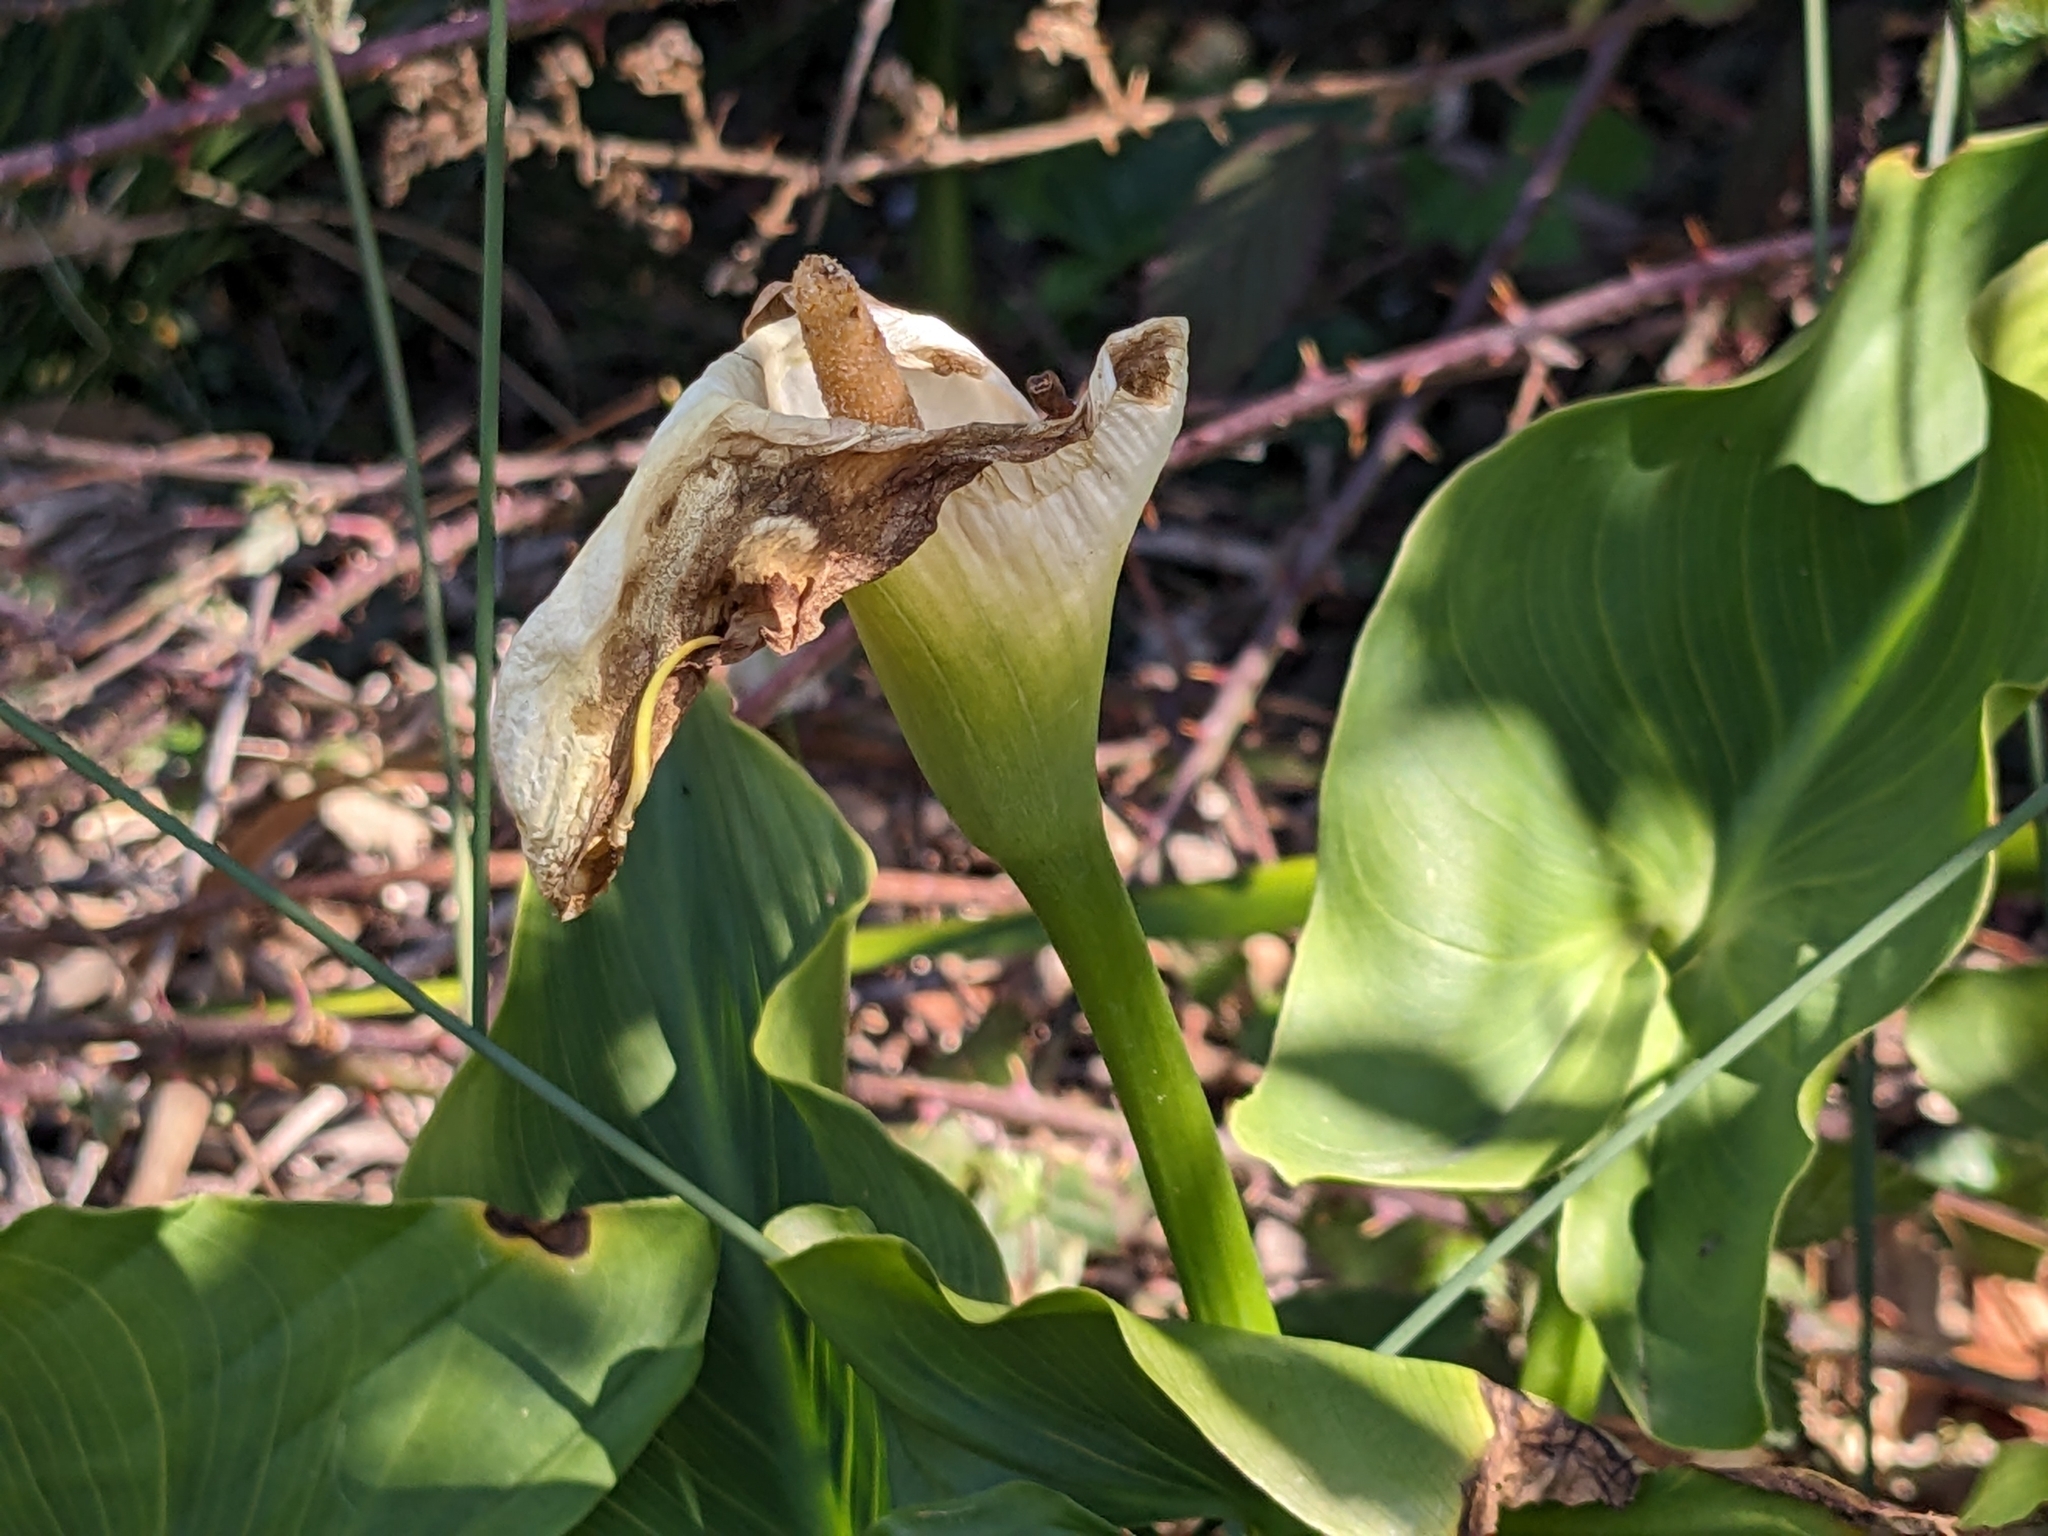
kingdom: Plantae
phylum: Tracheophyta
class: Liliopsida
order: Alismatales
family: Araceae
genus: Zantedeschia
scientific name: Zantedeschia aethiopica
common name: Altar-lily
